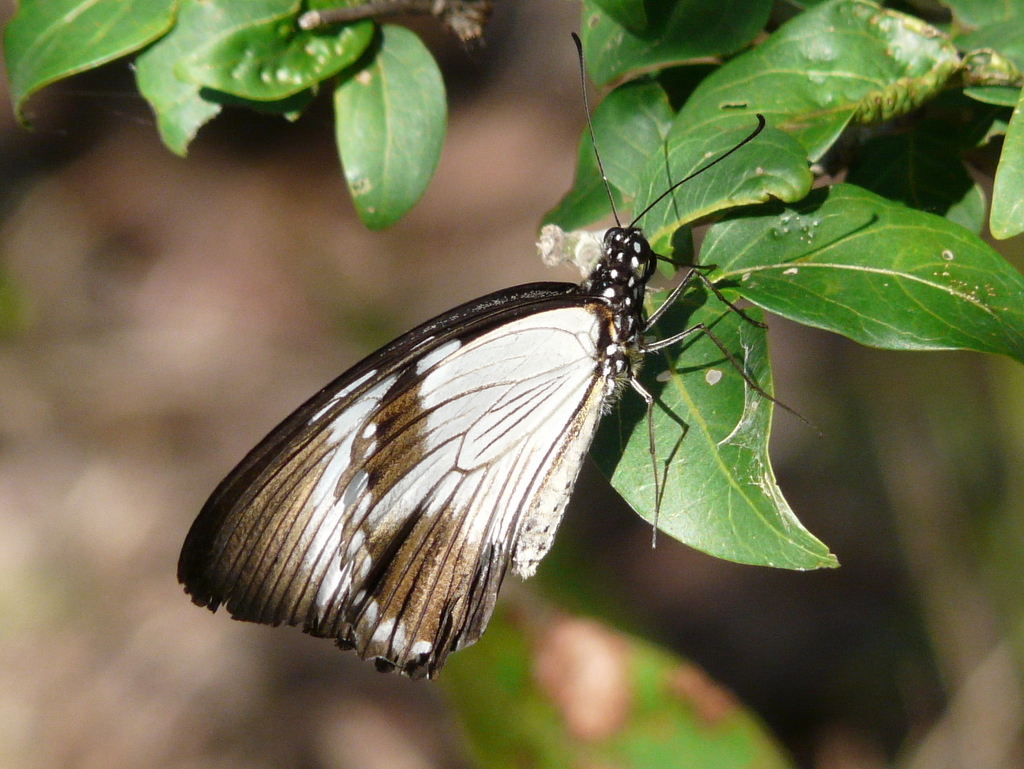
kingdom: Animalia
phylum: Arthropoda
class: Insecta
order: Lepidoptera
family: Papilionidae
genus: Papilio
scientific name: Papilio dardanus
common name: Flying handkerchief
